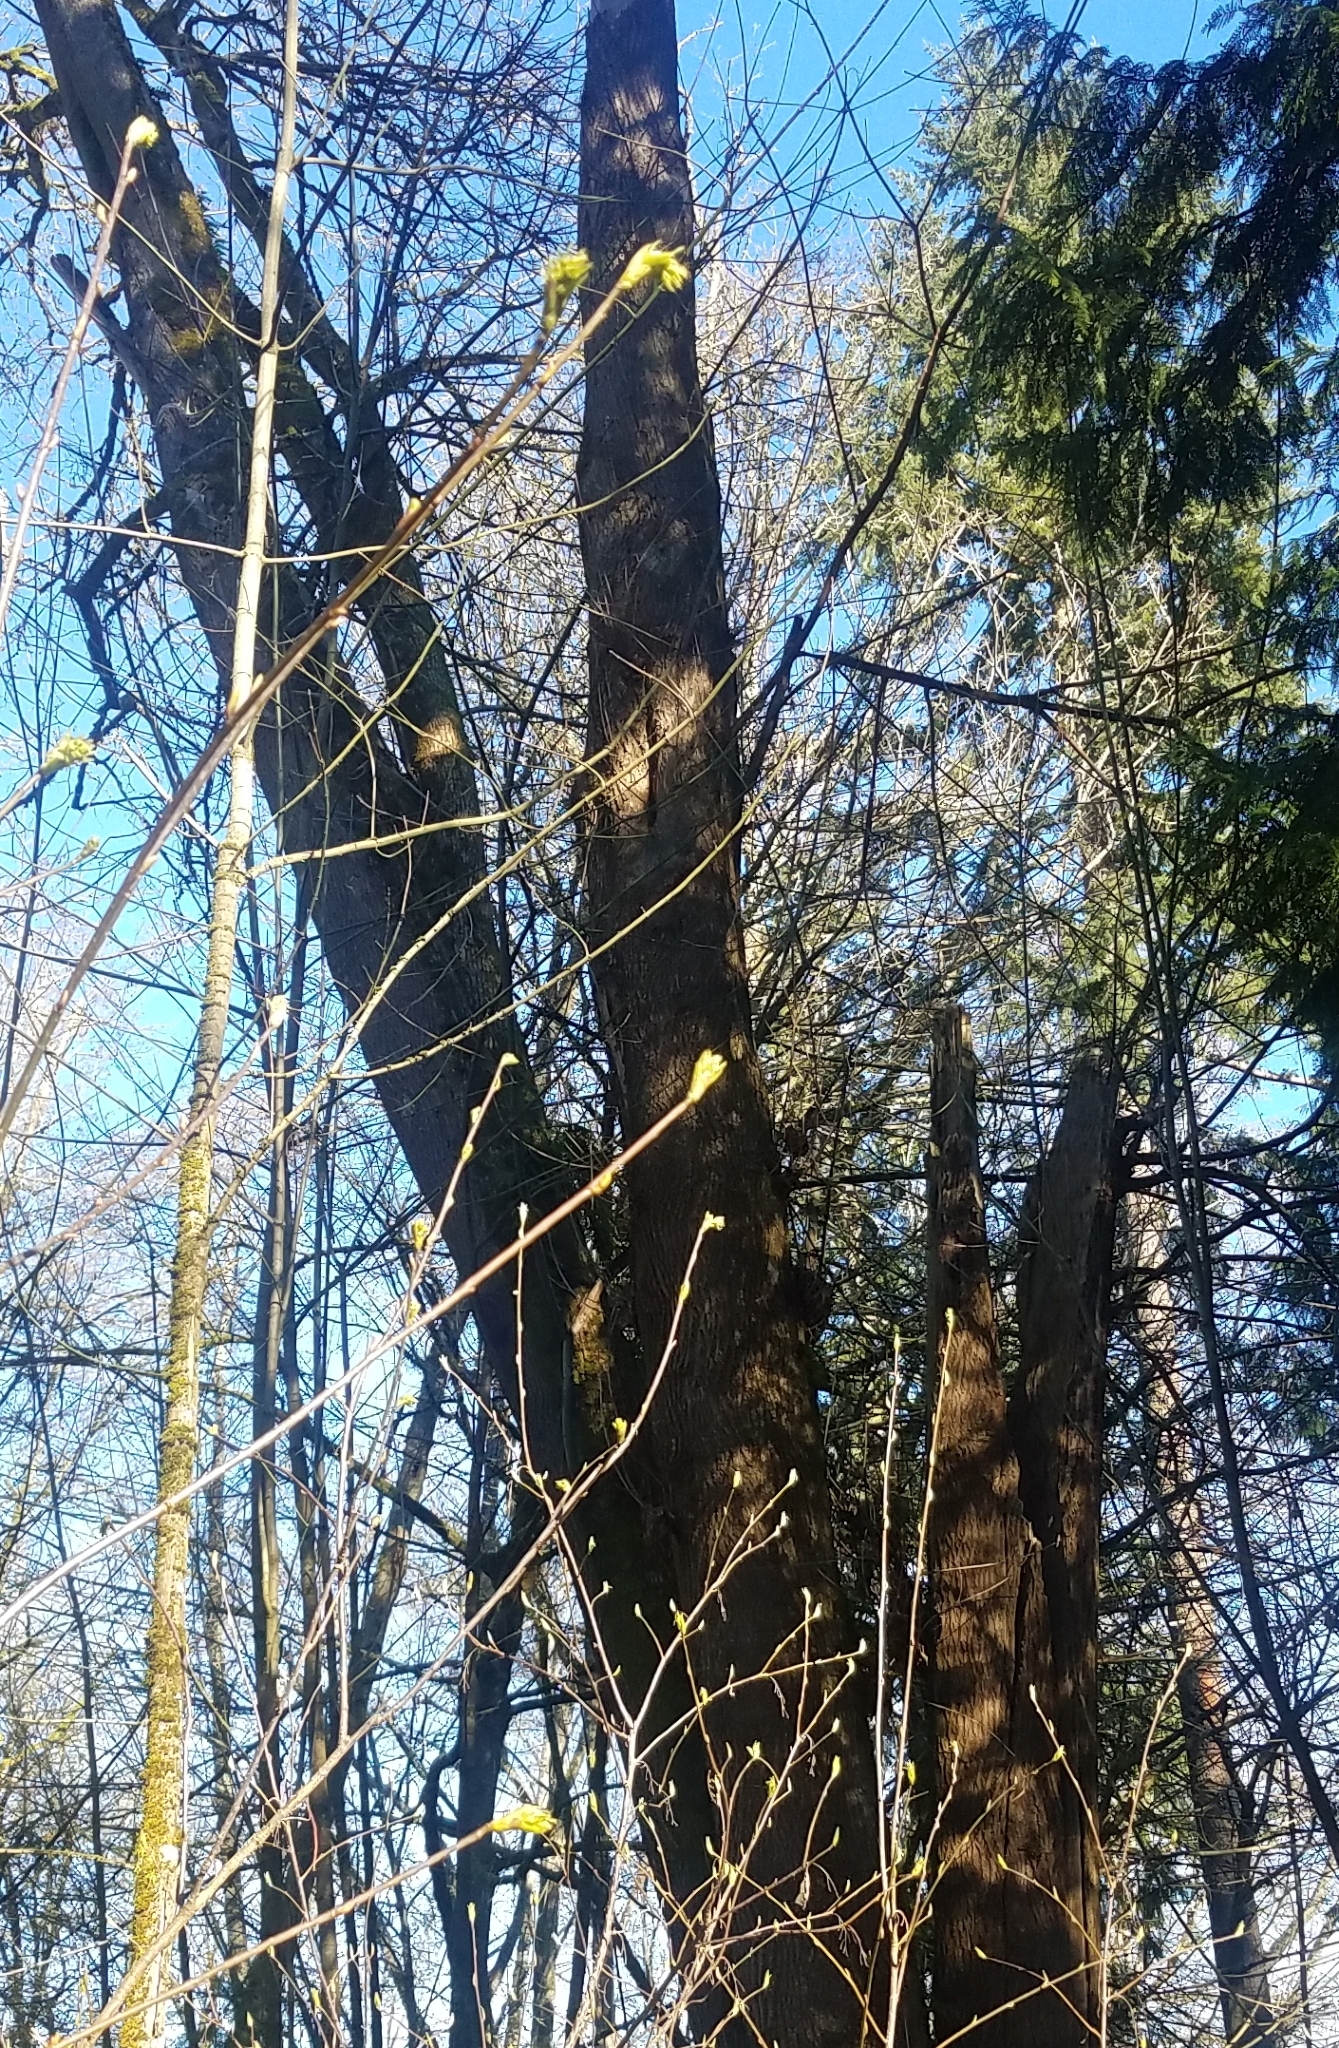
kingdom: Plantae
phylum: Tracheophyta
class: Magnoliopsida
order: Rosales
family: Rosaceae
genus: Oemleria
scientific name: Oemleria cerasiformis
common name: Osoberry
